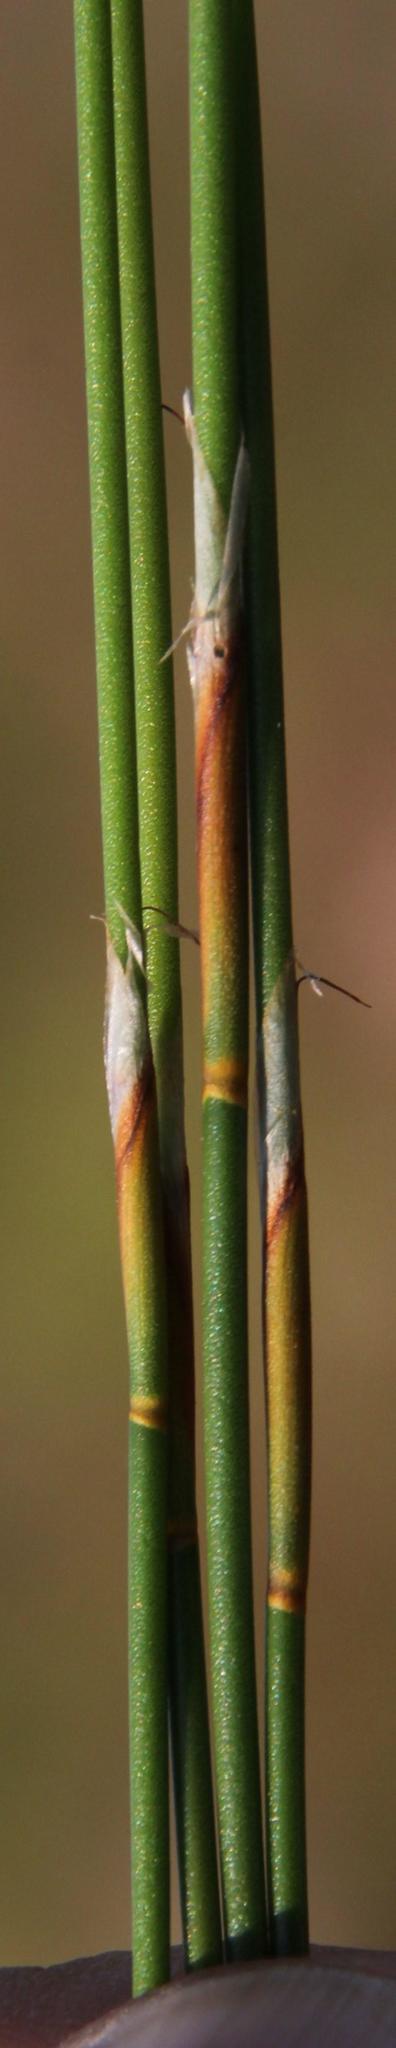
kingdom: Plantae
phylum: Tracheophyta
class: Liliopsida
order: Poales
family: Restionaceae
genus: Restio
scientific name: Restio capensis
